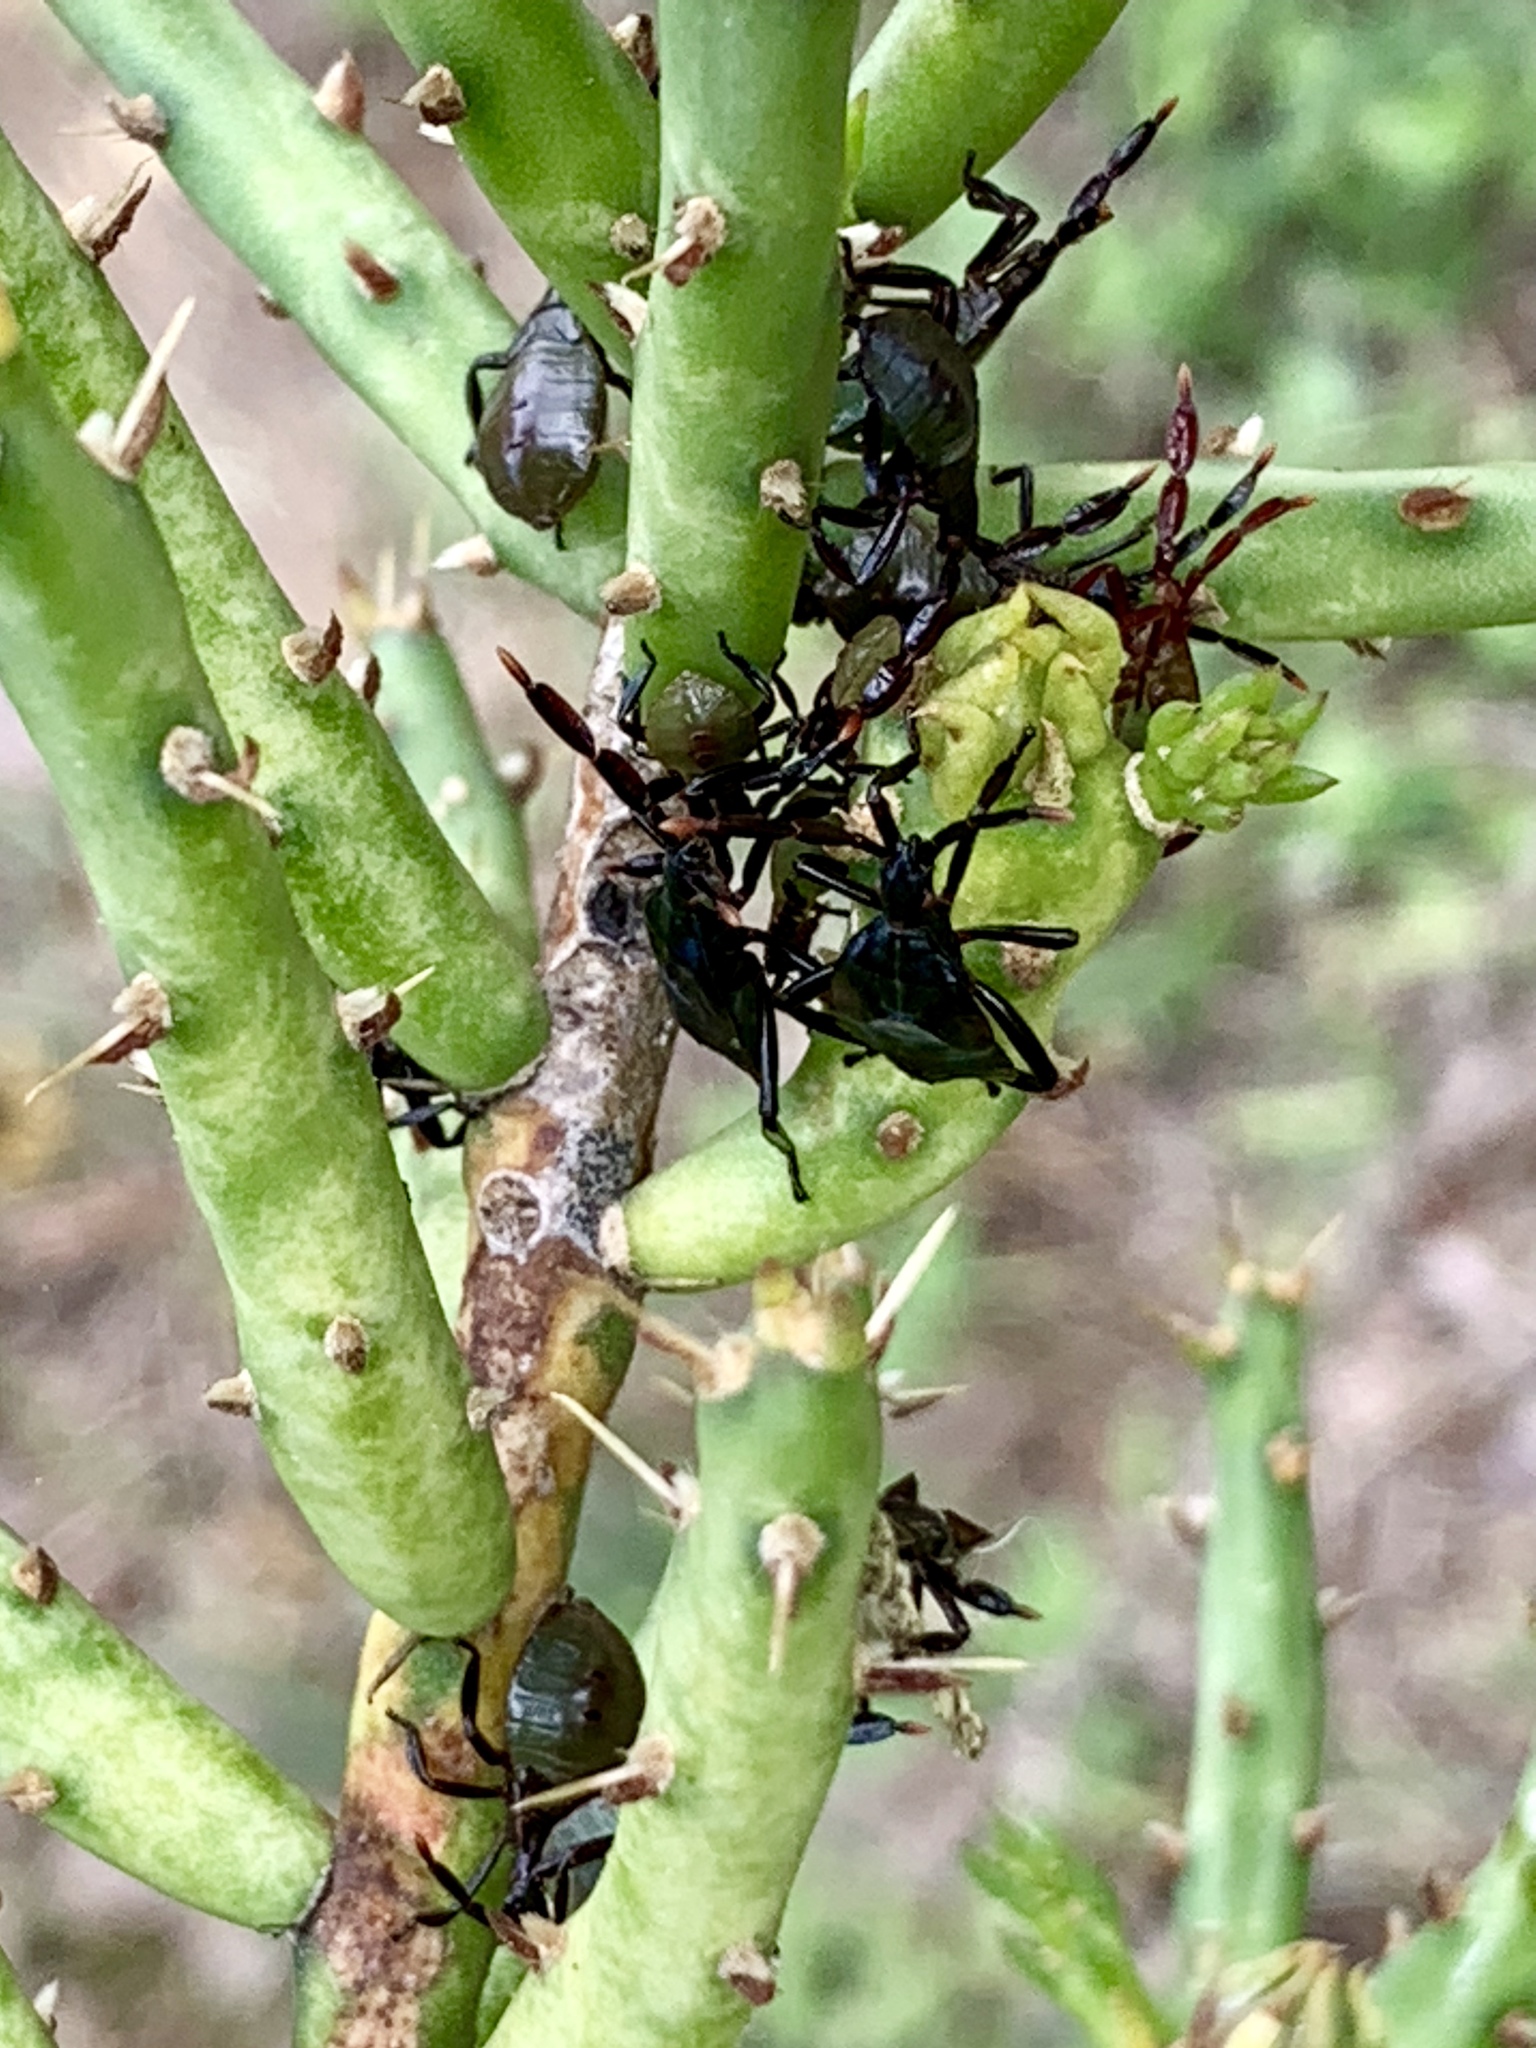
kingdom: Animalia
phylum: Arthropoda
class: Insecta
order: Hemiptera
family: Coreidae
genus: Chelinidea
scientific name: Chelinidea vittiger
